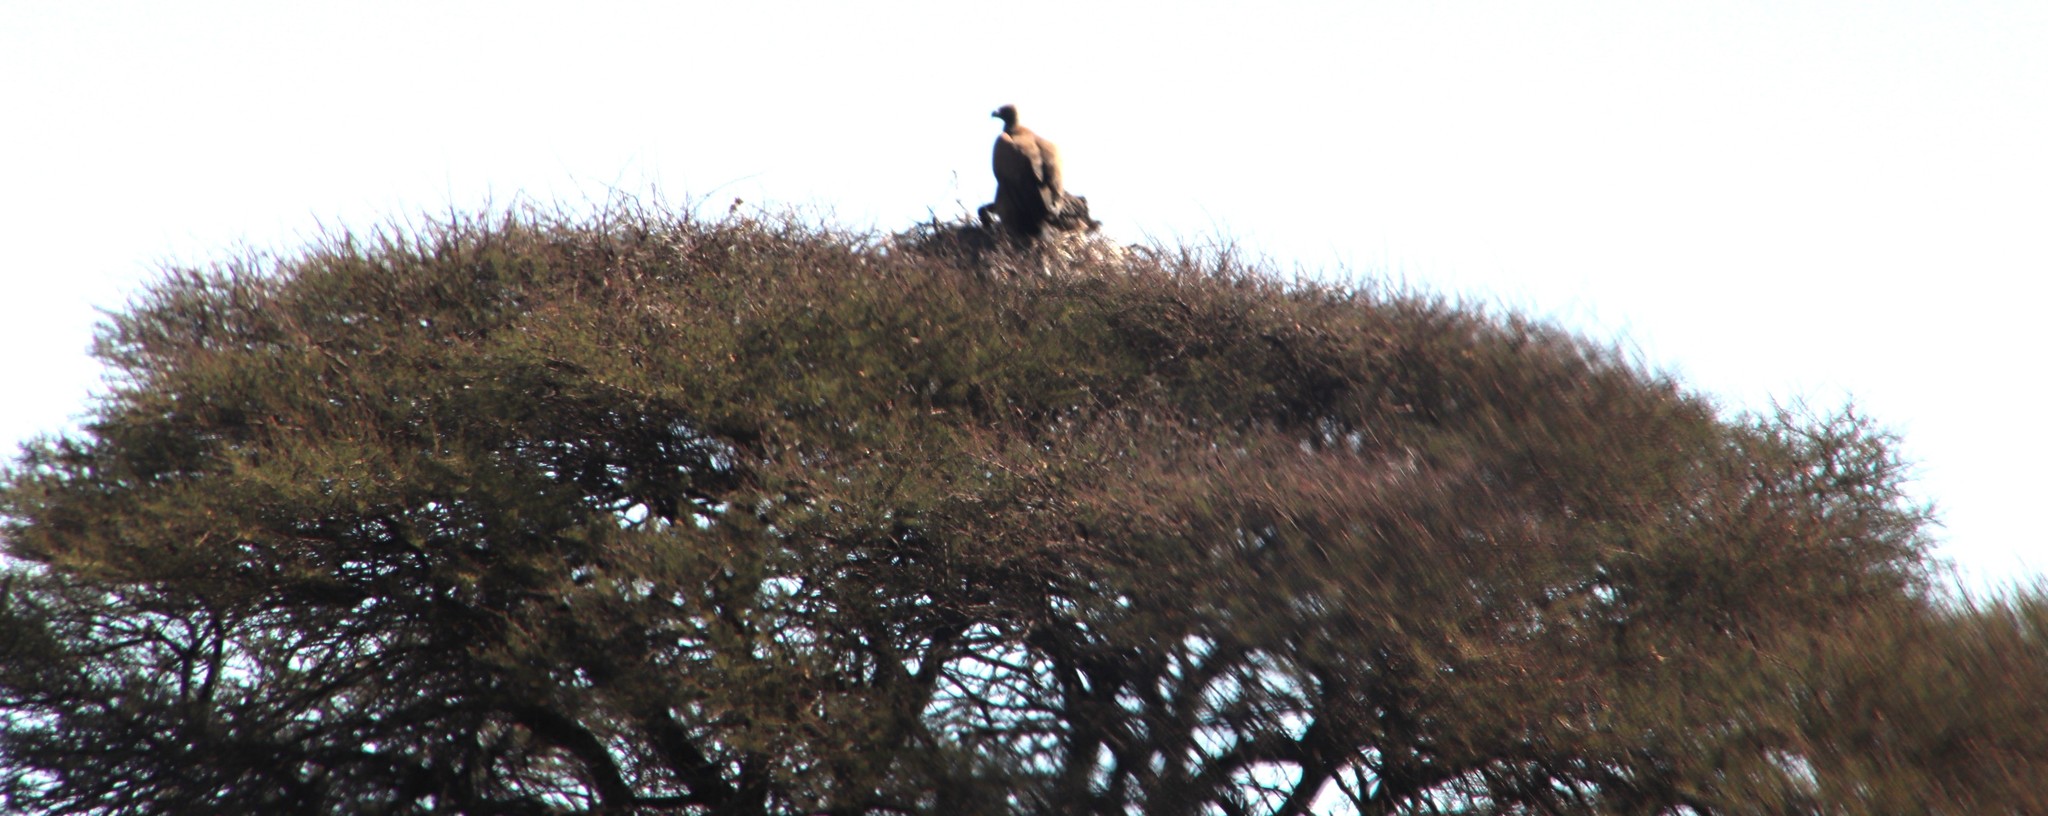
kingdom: Animalia
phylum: Chordata
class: Aves
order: Accipitriformes
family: Accipitridae
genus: Gyps
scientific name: Gyps africanus
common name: White-backed vulture
